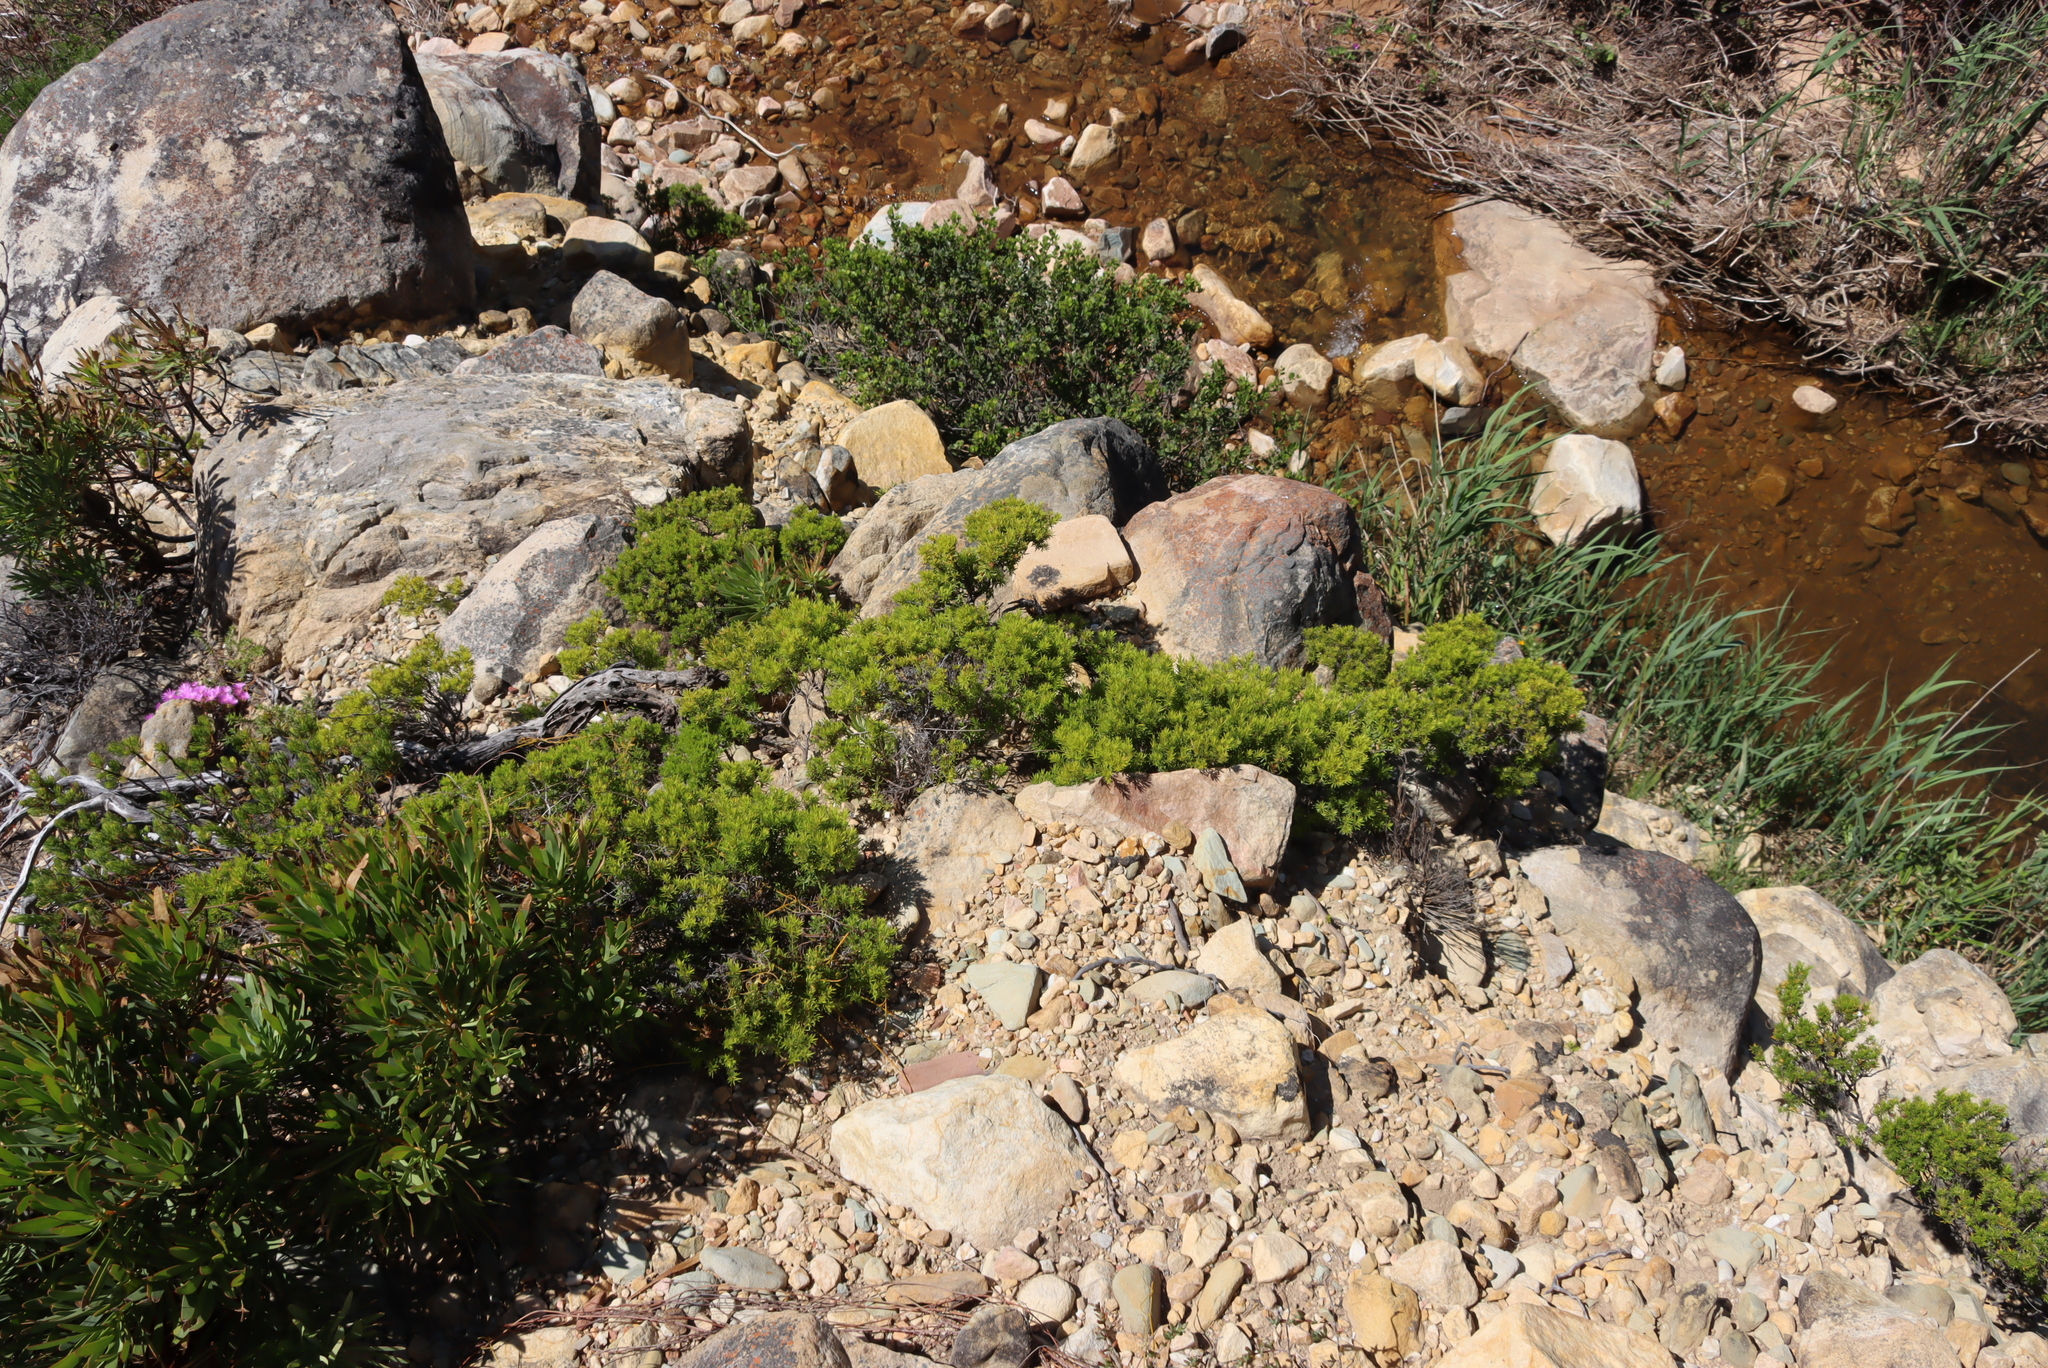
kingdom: Plantae
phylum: Tracheophyta
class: Magnoliopsida
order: Sapindales
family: Rutaceae
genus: Coleonema
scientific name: Coleonema album
